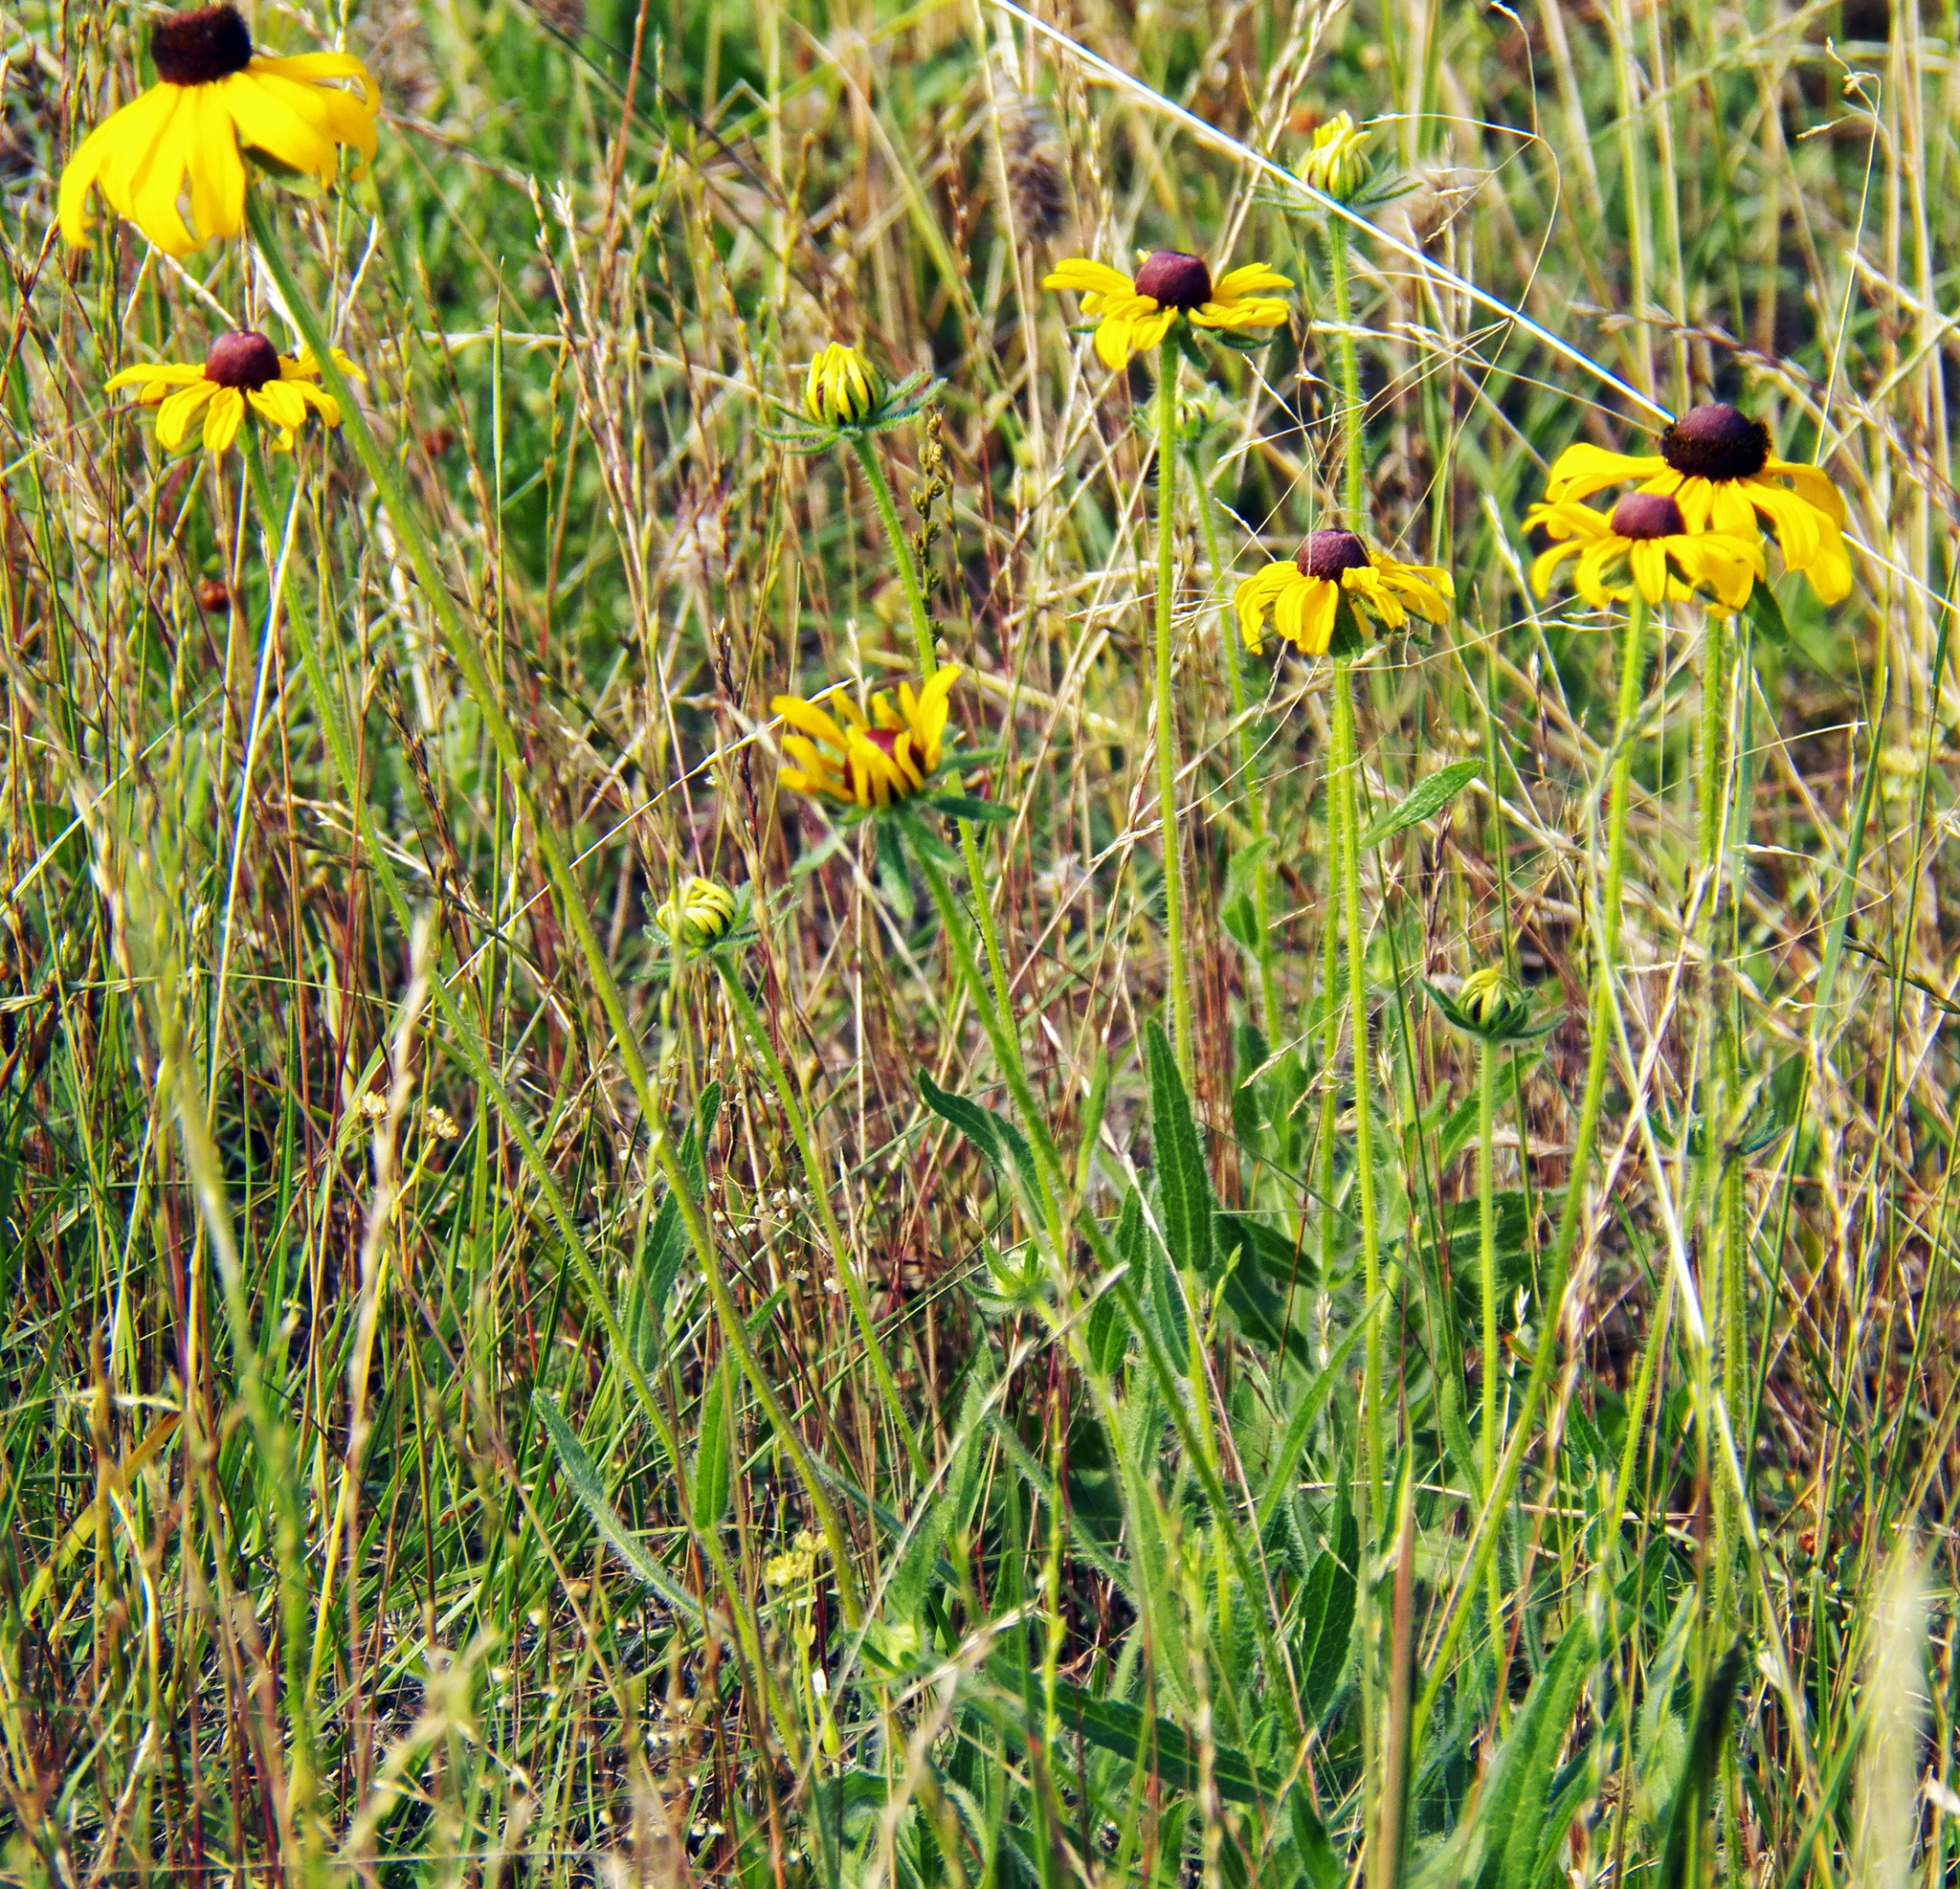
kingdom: Plantae
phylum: Tracheophyta
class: Magnoliopsida
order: Asterales
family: Asteraceae
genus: Rudbeckia
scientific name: Rudbeckia hirta
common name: Black-eyed-susan
